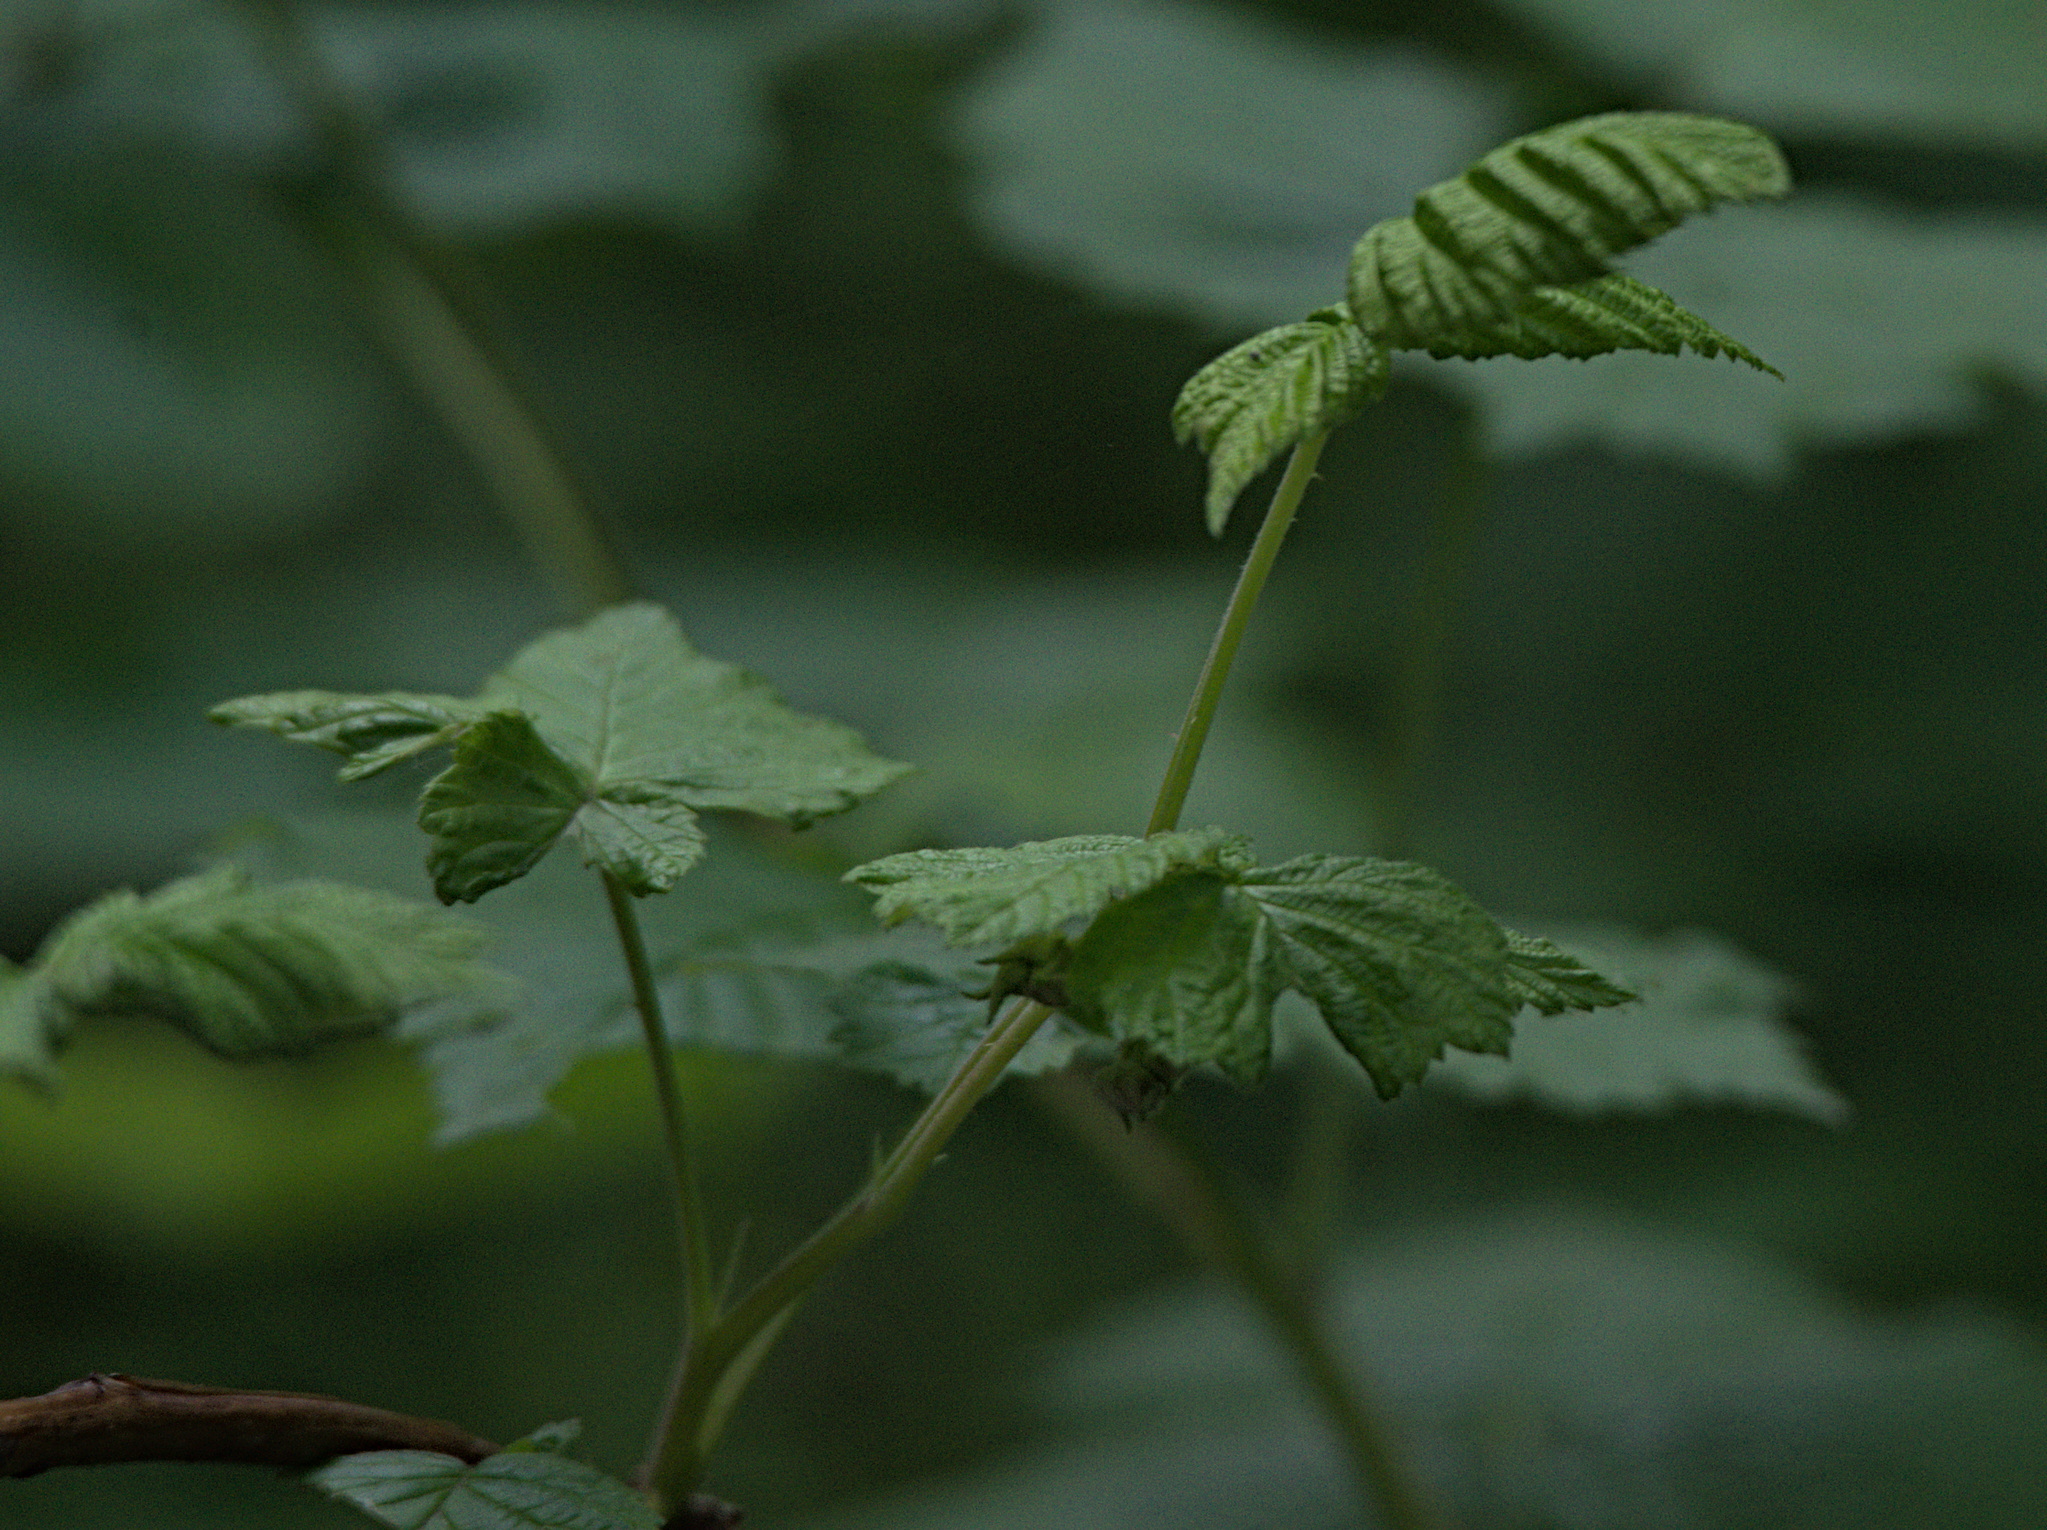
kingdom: Plantae
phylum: Tracheophyta
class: Magnoliopsida
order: Rosales
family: Rosaceae
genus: Rubus
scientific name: Rubus idaeus
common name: Raspberry
